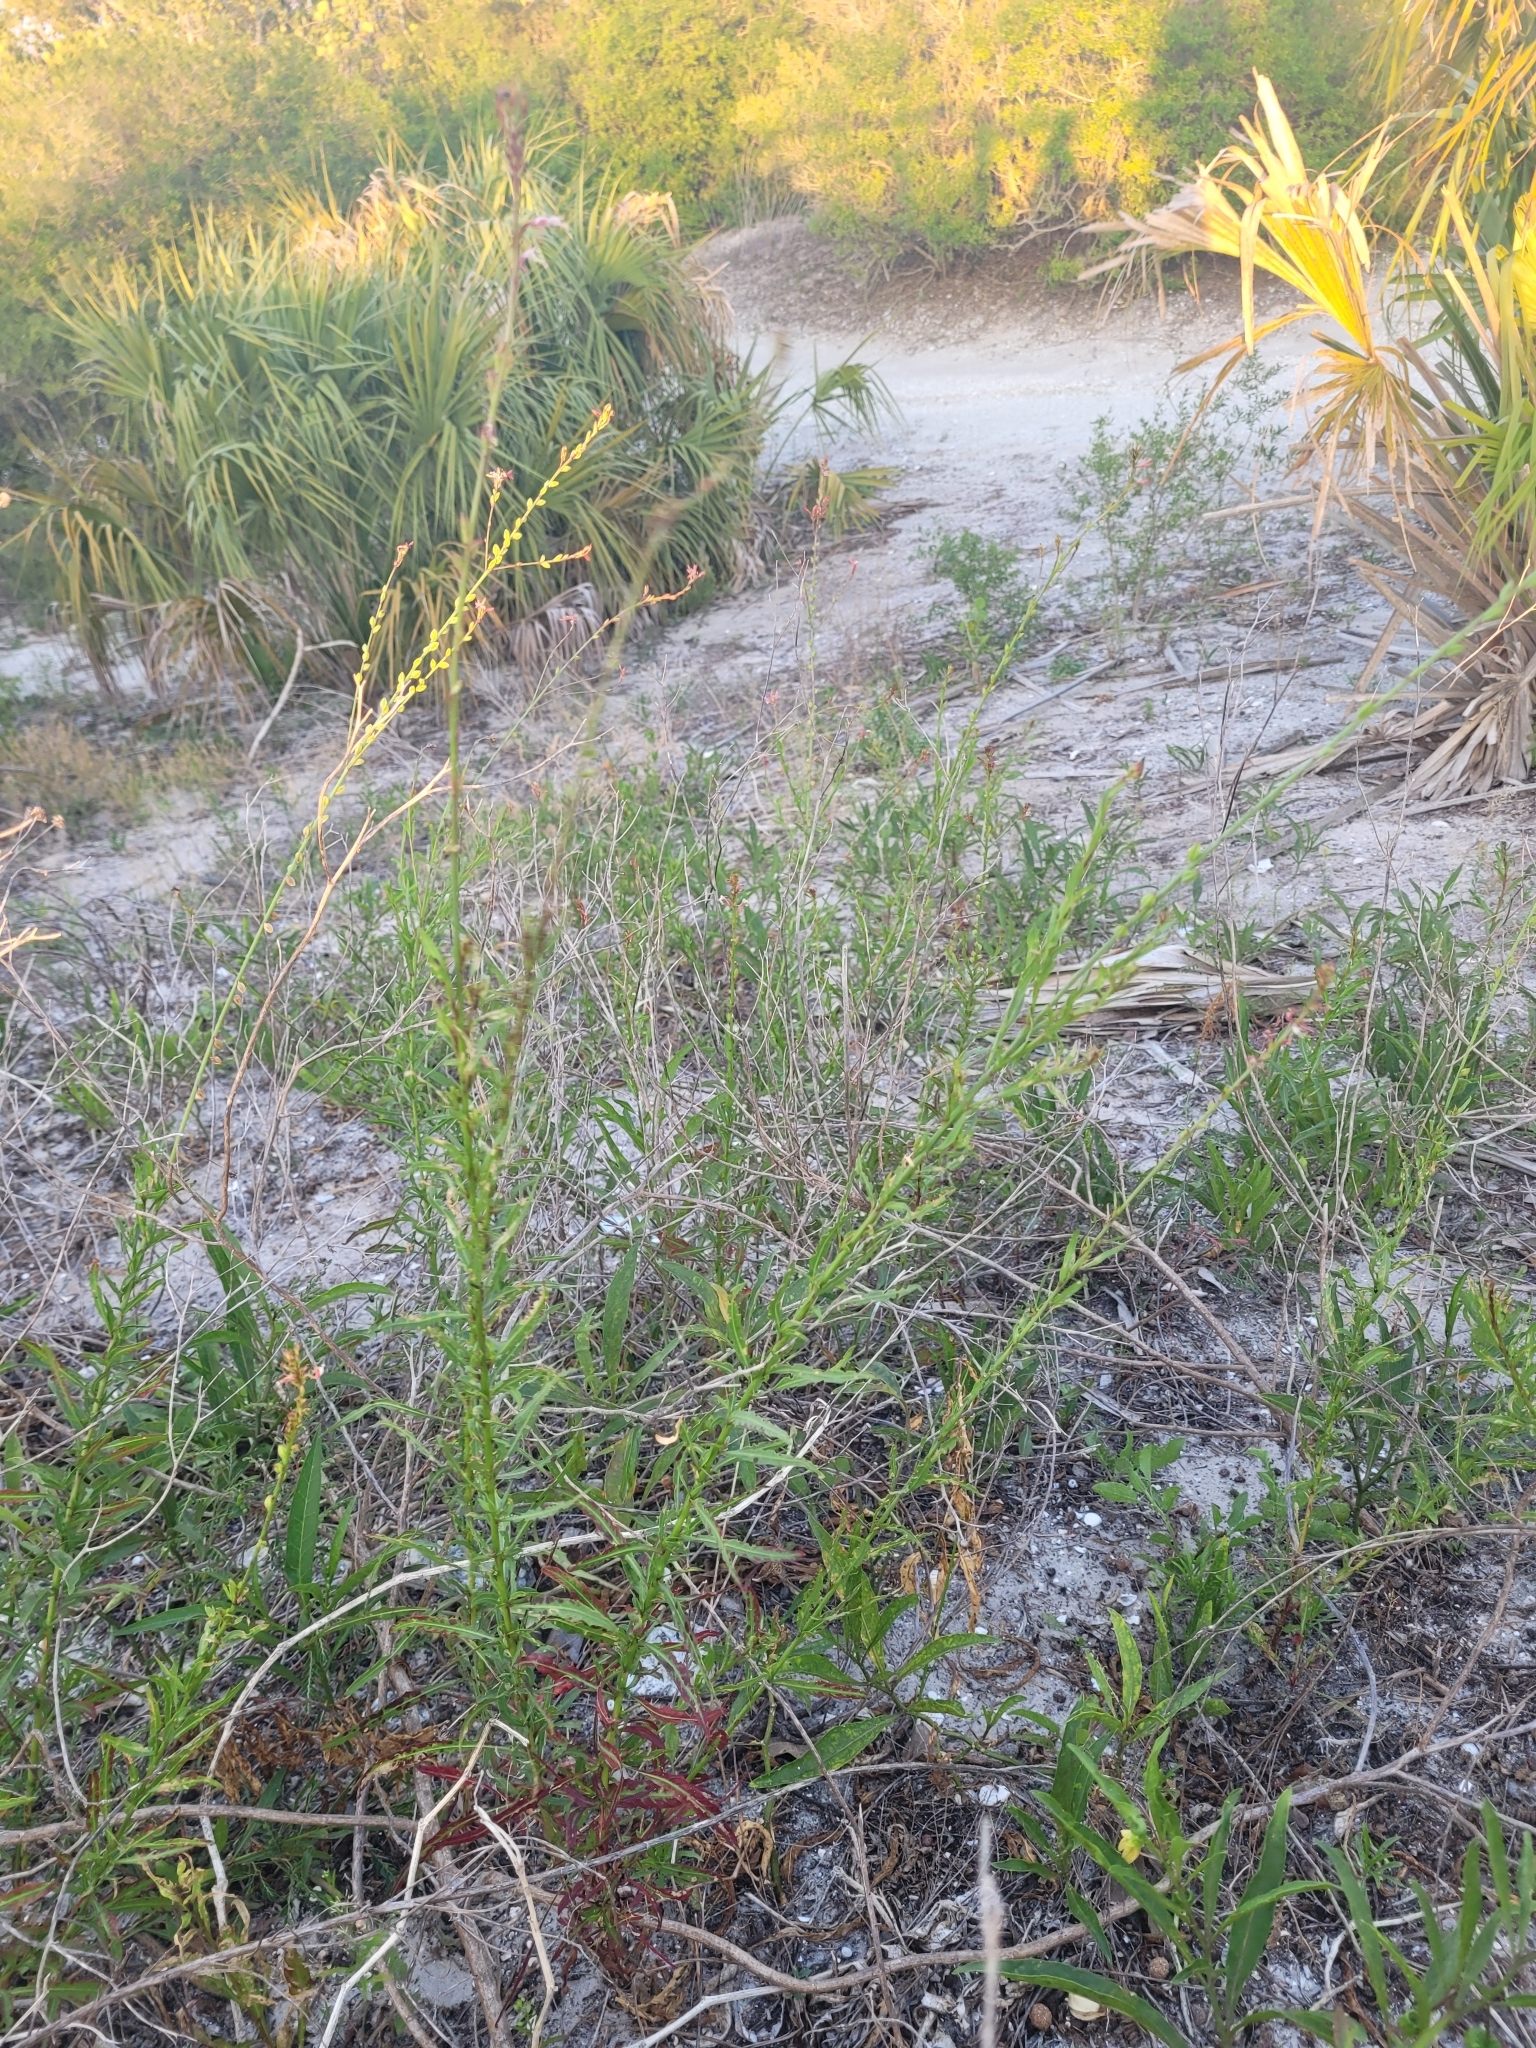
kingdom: Plantae
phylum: Tracheophyta
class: Magnoliopsida
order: Myrtales
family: Onagraceae
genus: Oenothera
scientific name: Oenothera simulans
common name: Southern beeblossom
